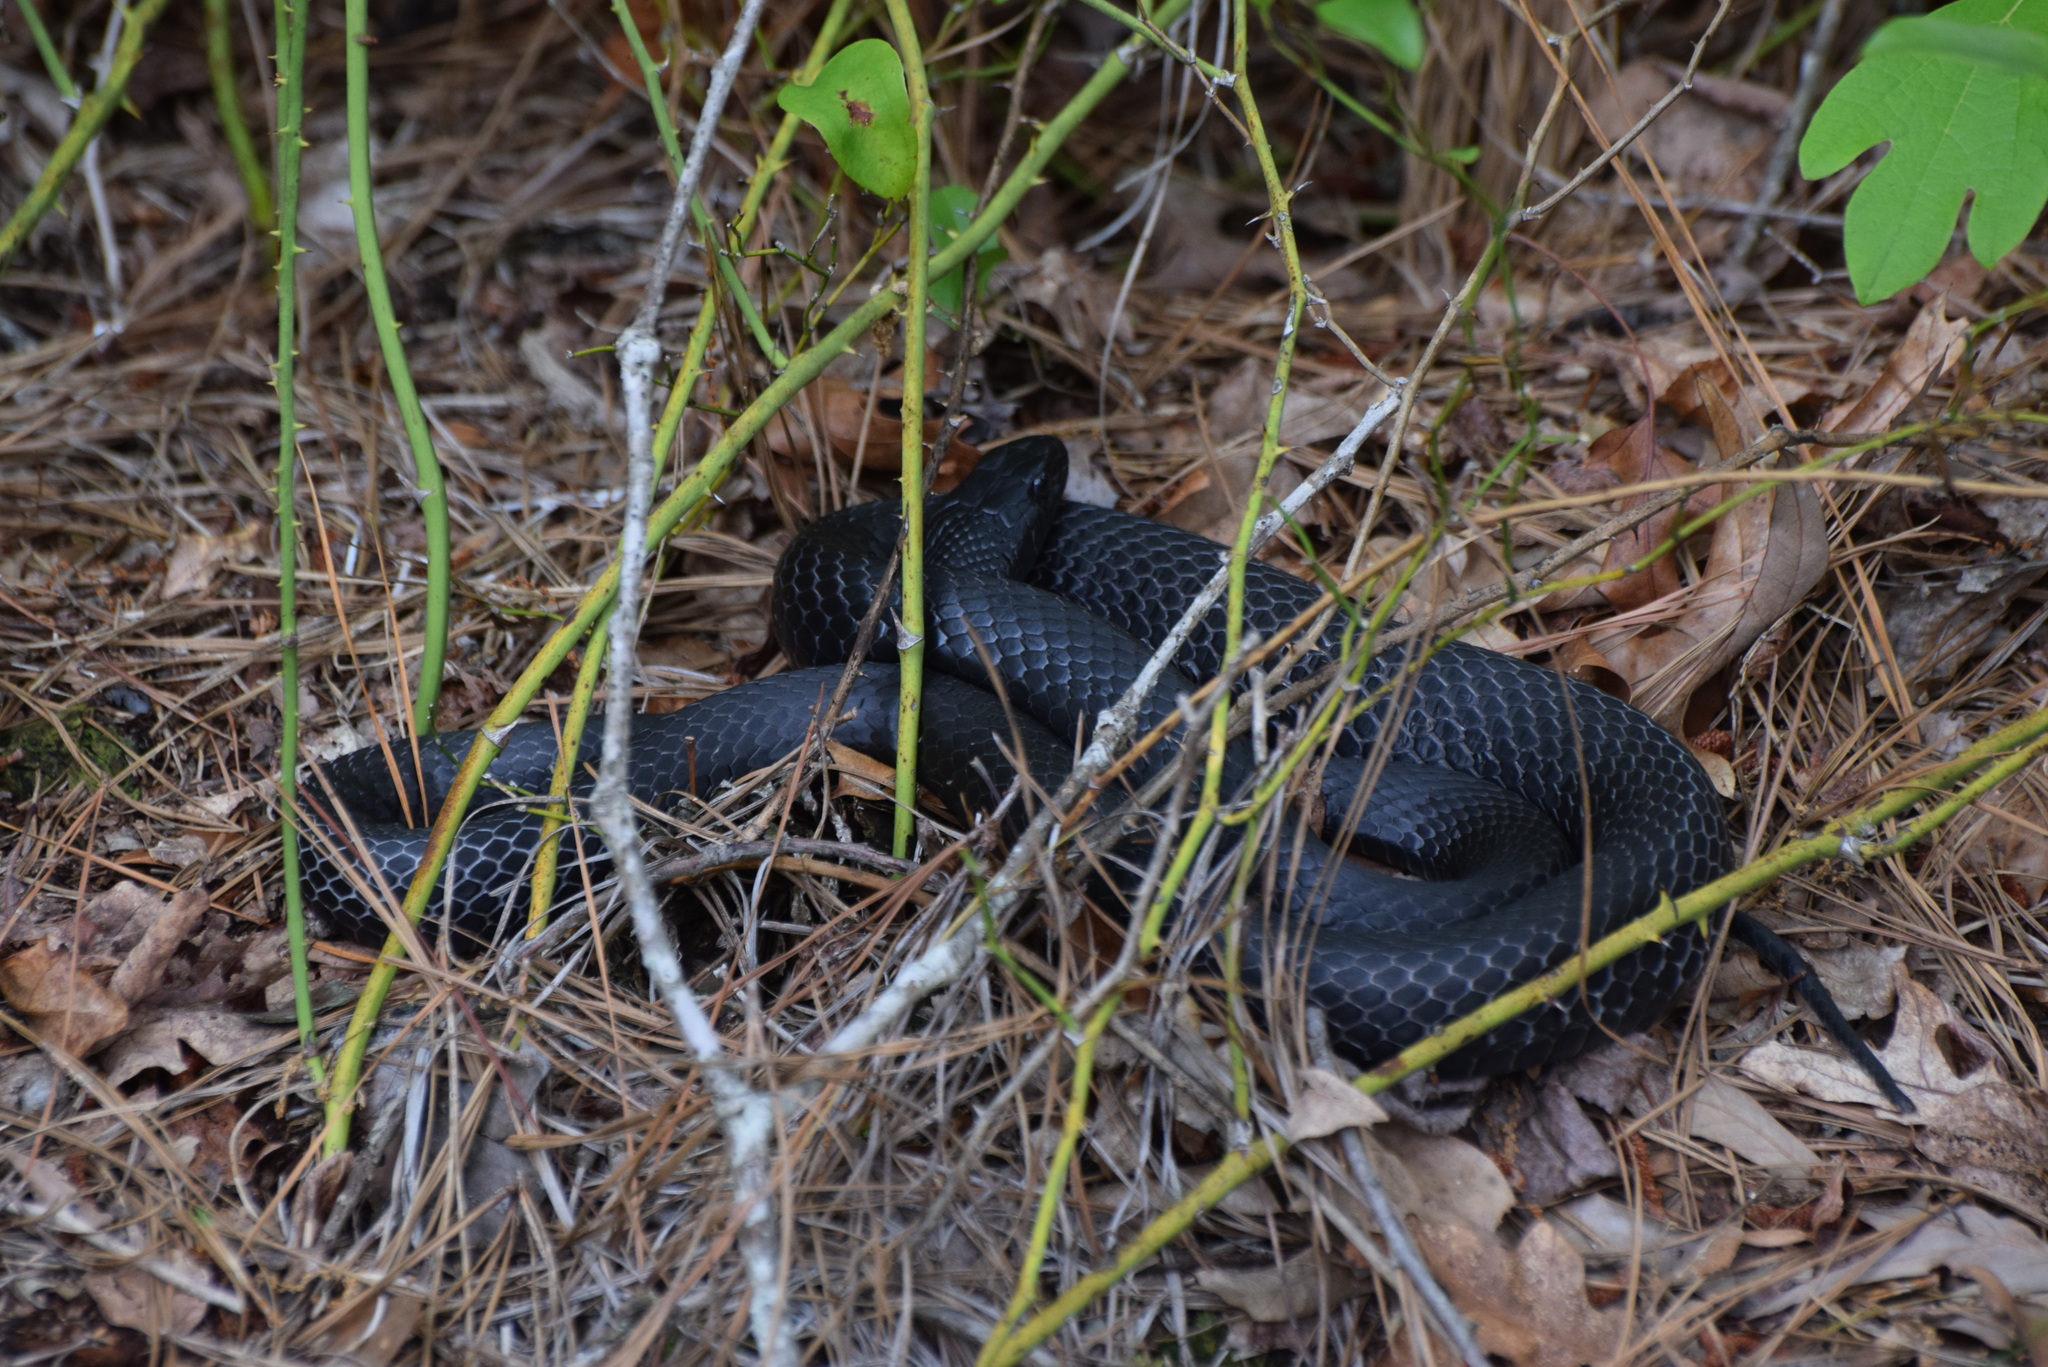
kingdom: Animalia
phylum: Chordata
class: Squamata
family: Colubridae
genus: Coluber
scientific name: Coluber constrictor
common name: Eastern racer
